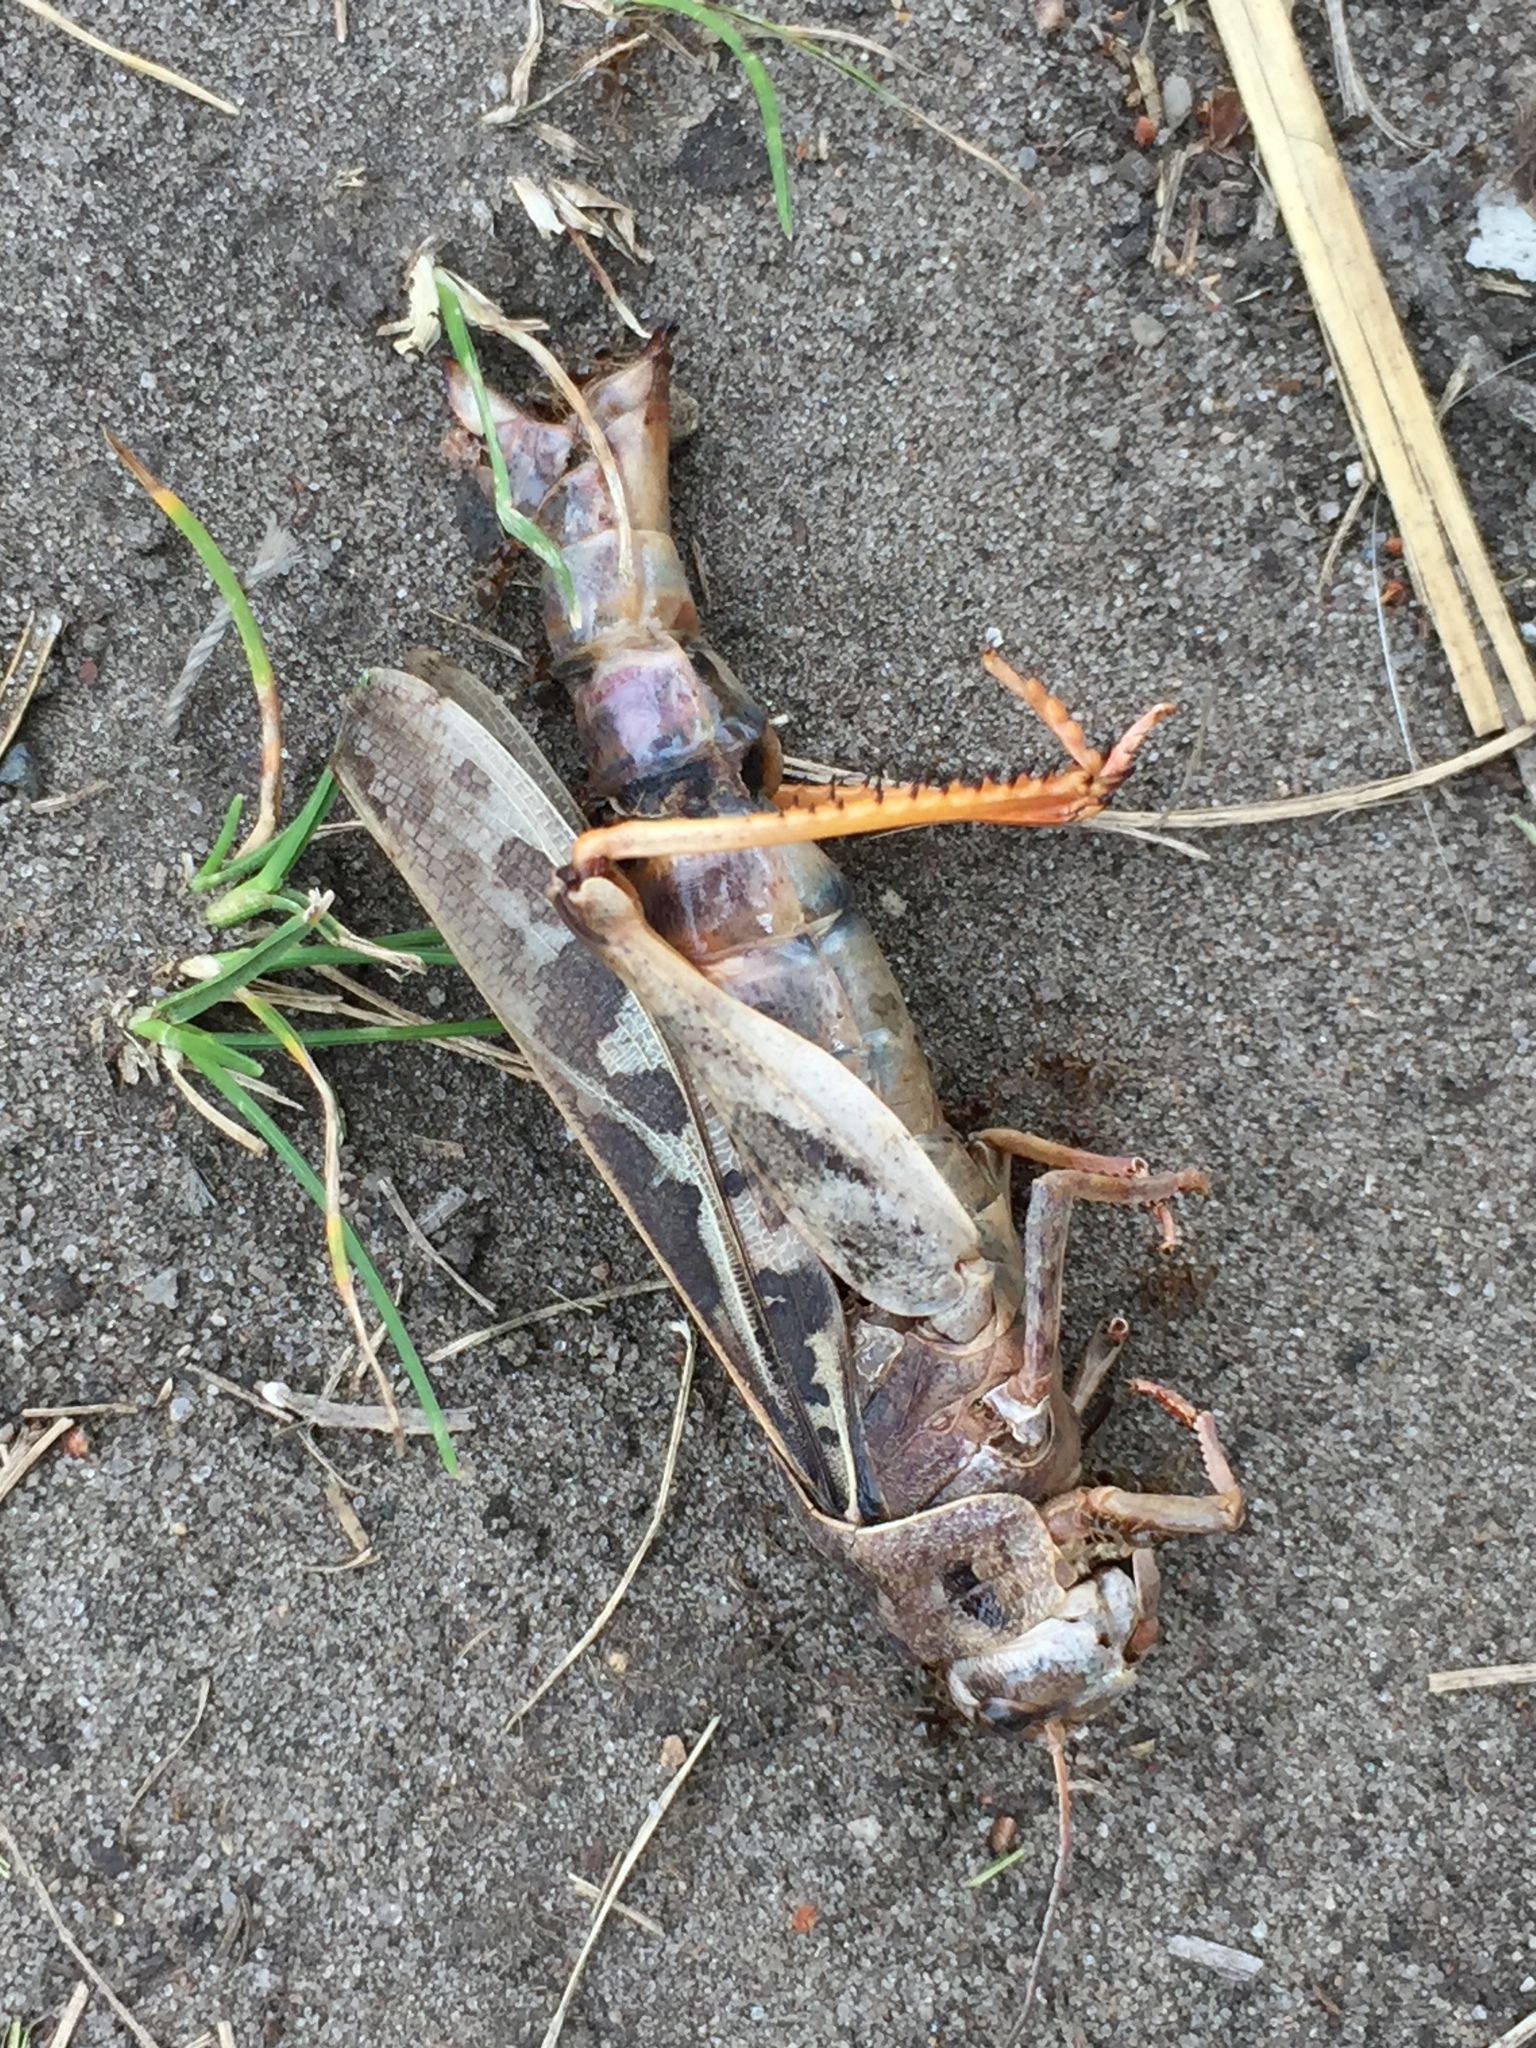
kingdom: Animalia
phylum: Arthropoda
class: Insecta
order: Orthoptera
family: Acrididae
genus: Pardalophora
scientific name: Pardalophora apiculata
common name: Coral-winged locust
